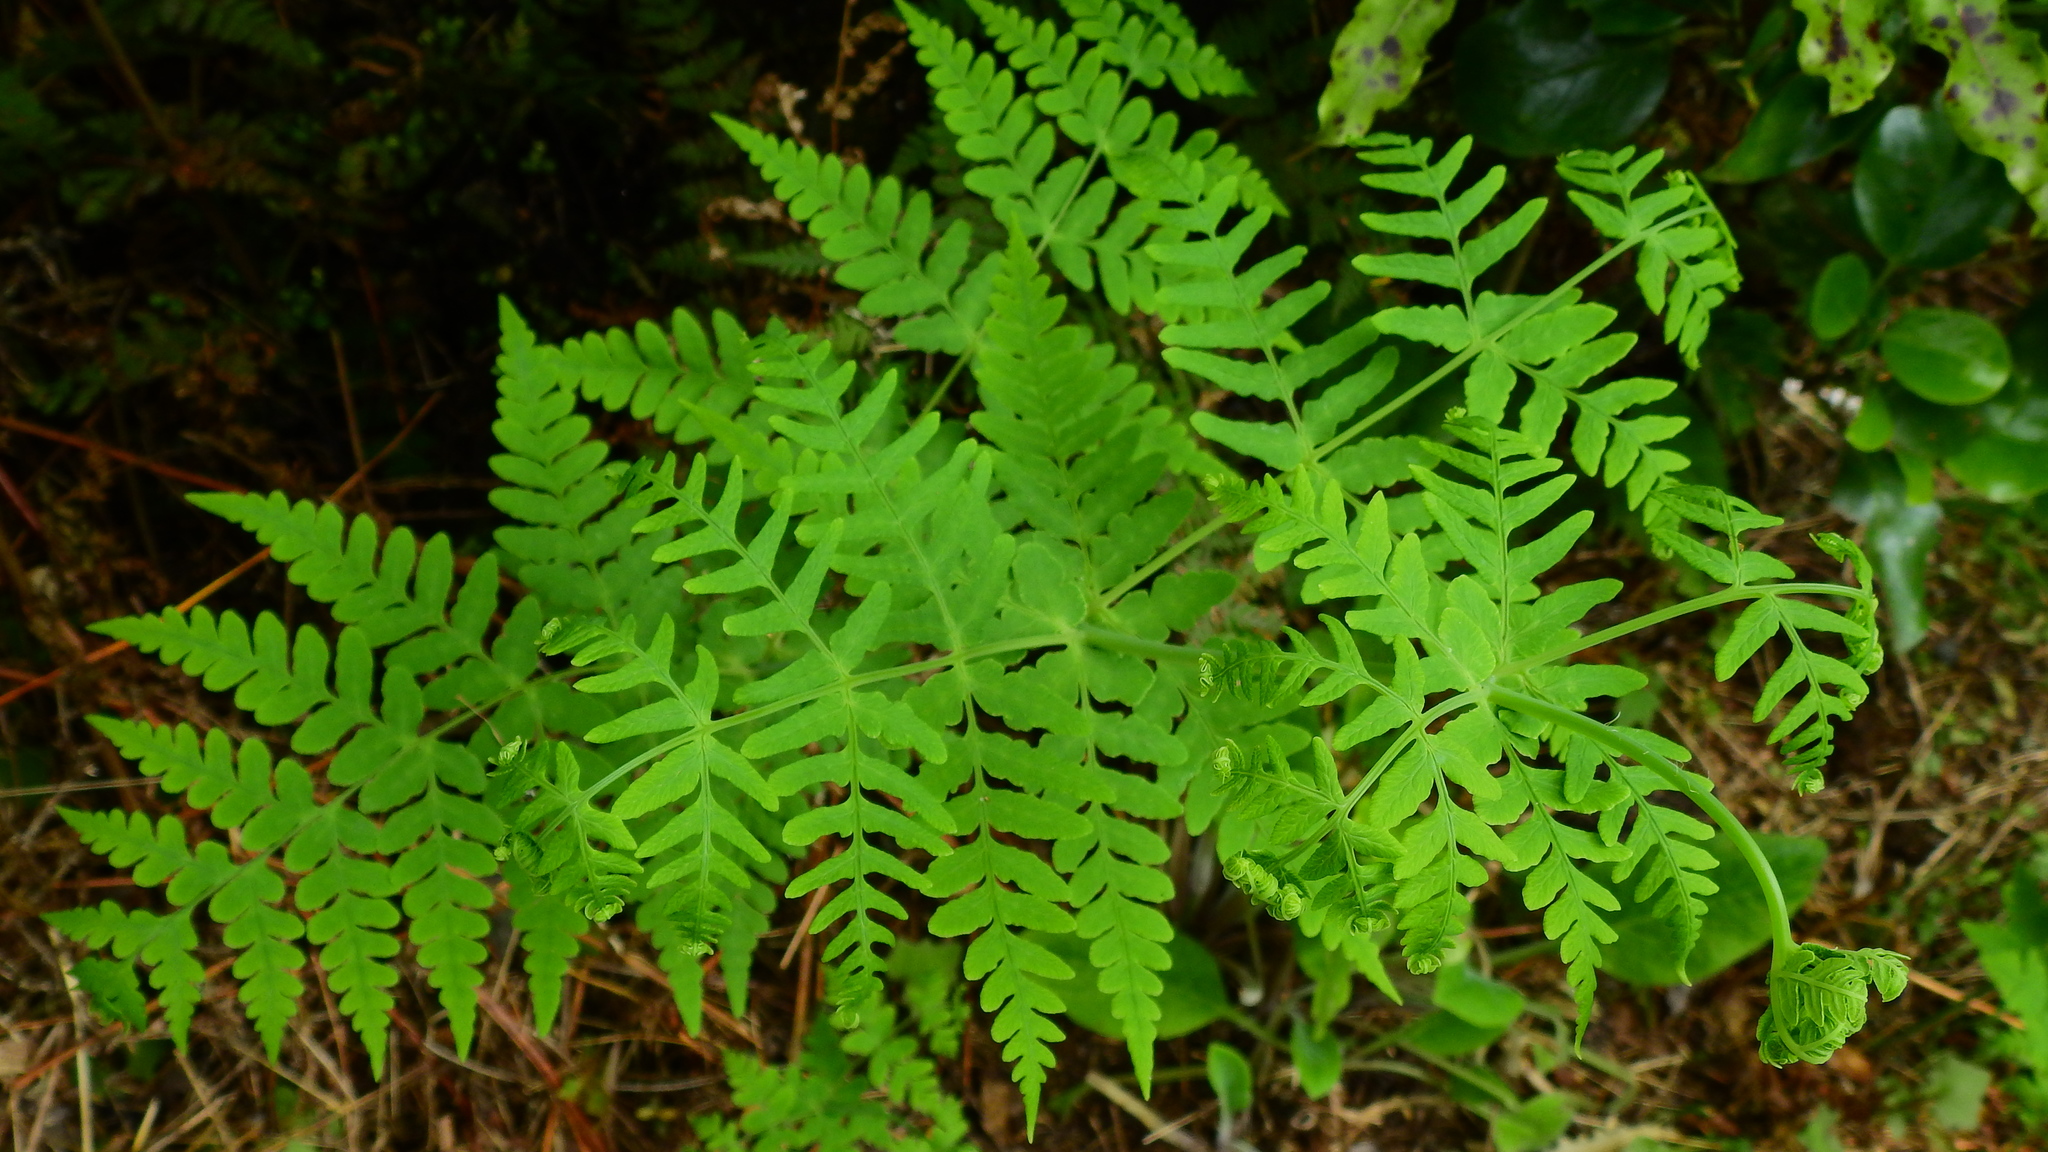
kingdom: Plantae
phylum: Tracheophyta
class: Polypodiopsida
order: Polypodiales
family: Dennstaedtiaceae
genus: Histiopteris
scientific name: Histiopteris incisa
